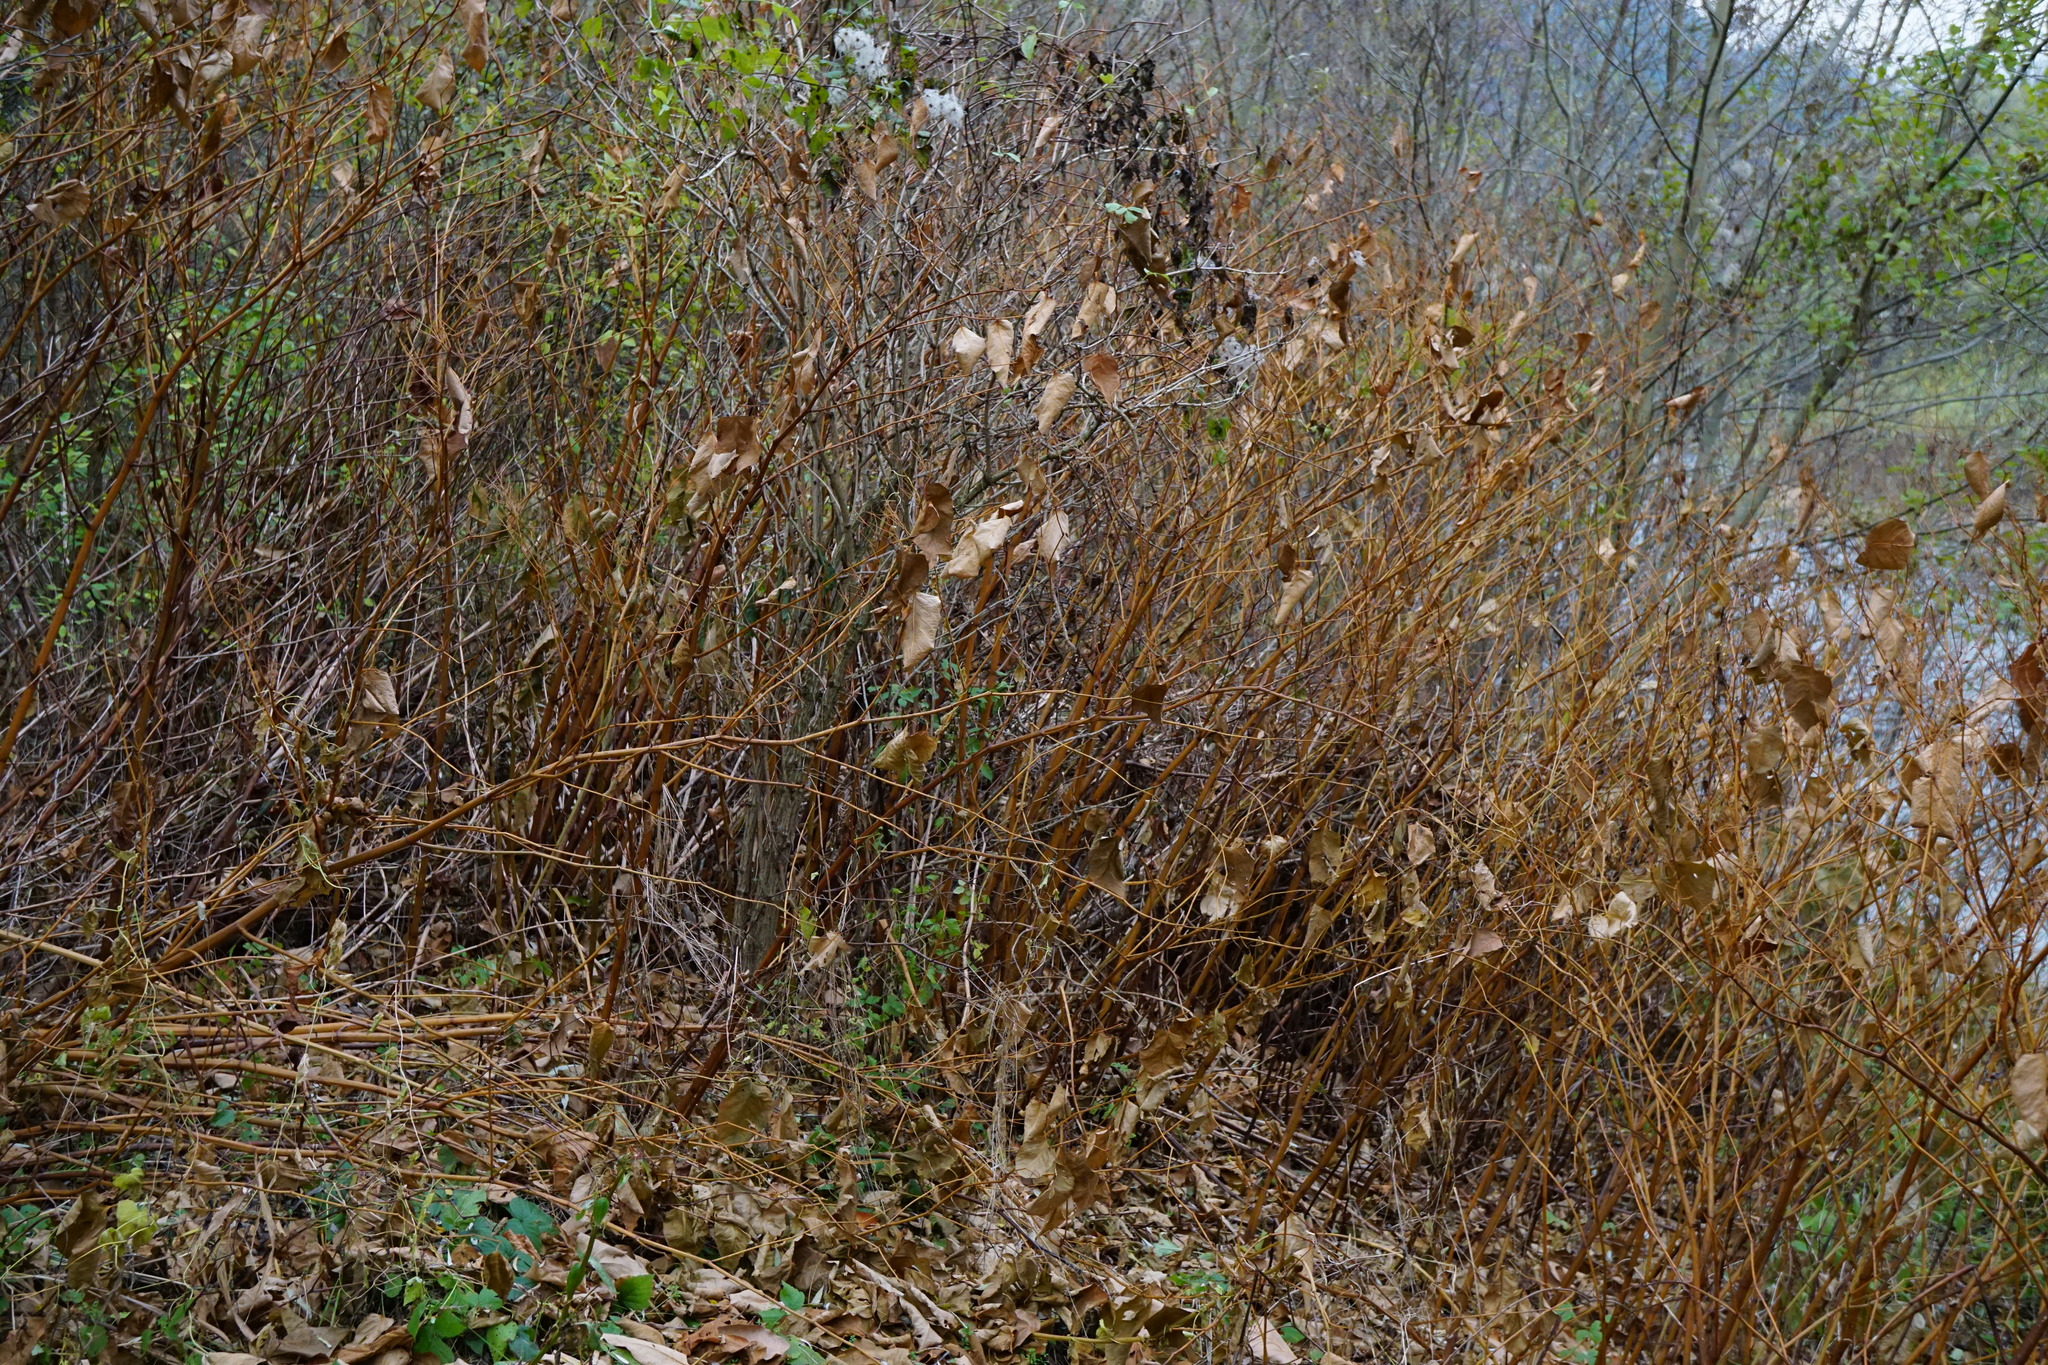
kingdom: Plantae
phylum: Tracheophyta
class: Magnoliopsida
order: Caryophyllales
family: Polygonaceae
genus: Reynoutria
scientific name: Reynoutria bohemica
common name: Bohemian knotweed
